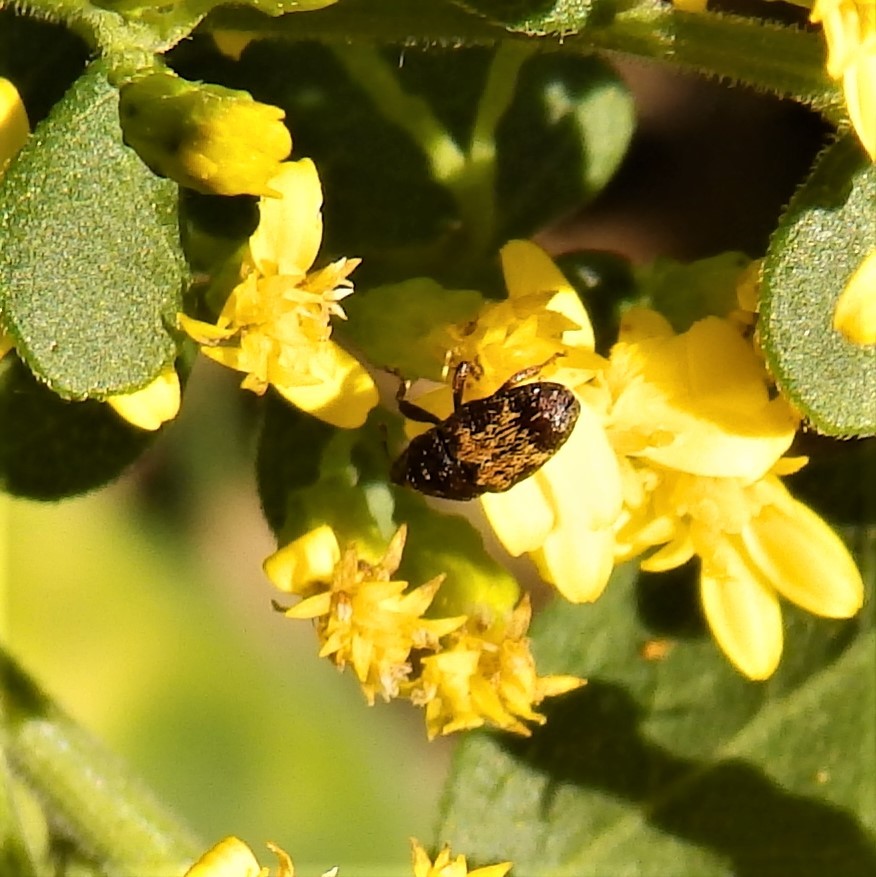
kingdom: Animalia
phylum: Arthropoda
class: Insecta
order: Coleoptera
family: Curculionidae
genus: Glyptobaris
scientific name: Glyptobaris lecontei
